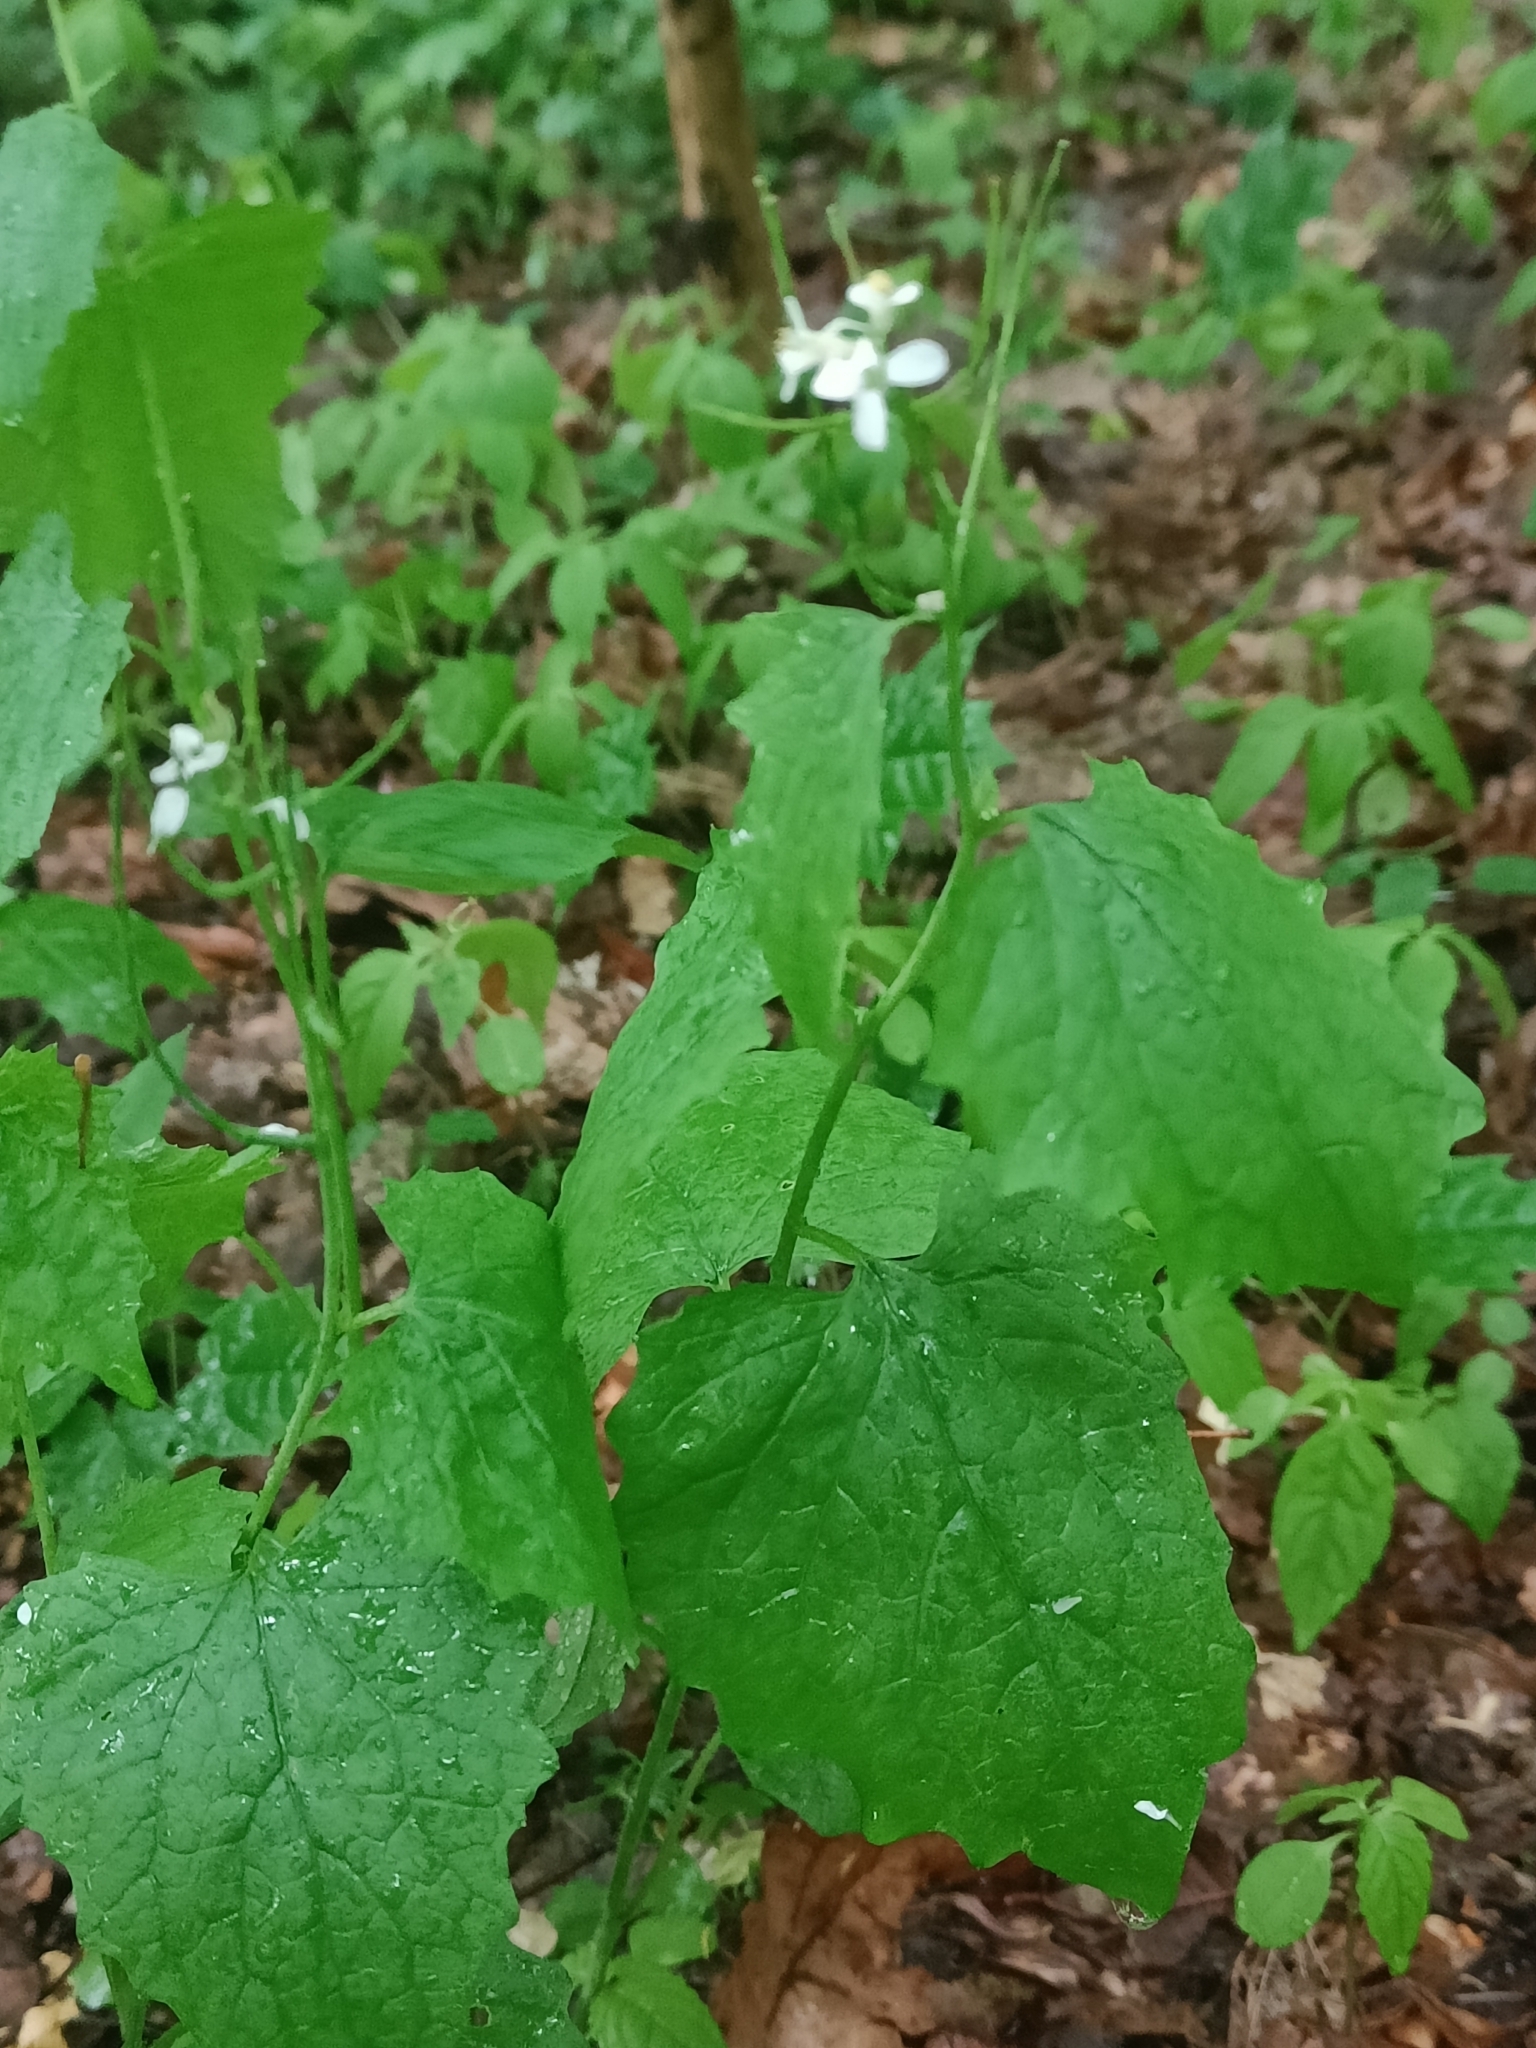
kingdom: Plantae
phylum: Tracheophyta
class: Magnoliopsida
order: Brassicales
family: Brassicaceae
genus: Alliaria
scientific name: Alliaria petiolata
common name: Garlic mustard
